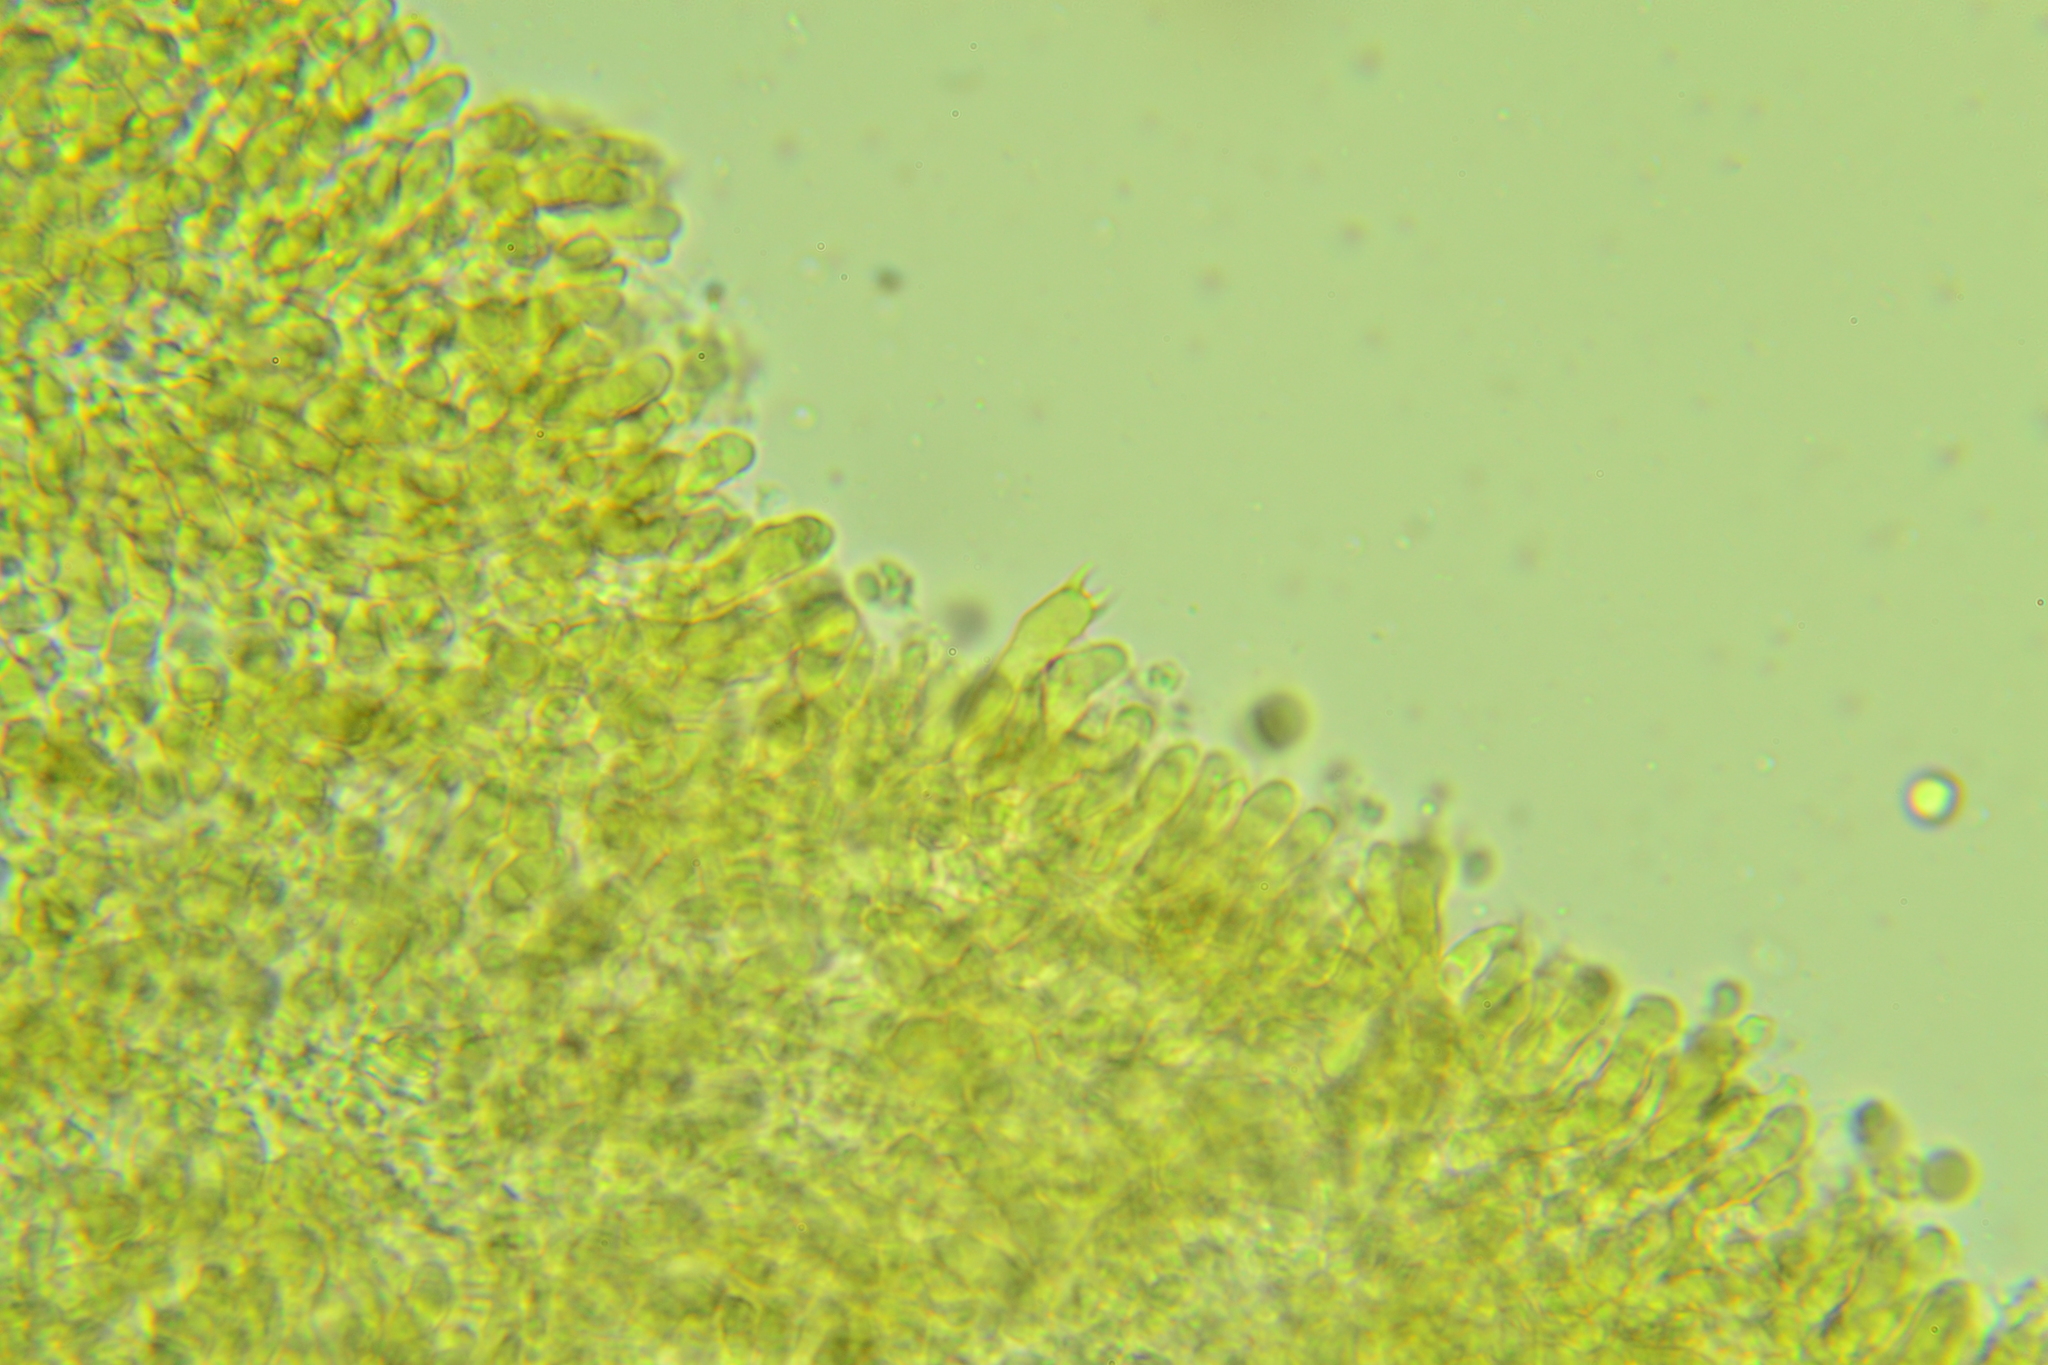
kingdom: Fungi
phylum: Basidiomycota
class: Agaricomycetes
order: Agaricales
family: Porotheleaceae
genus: Phloeomana
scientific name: Phloeomana clavata
